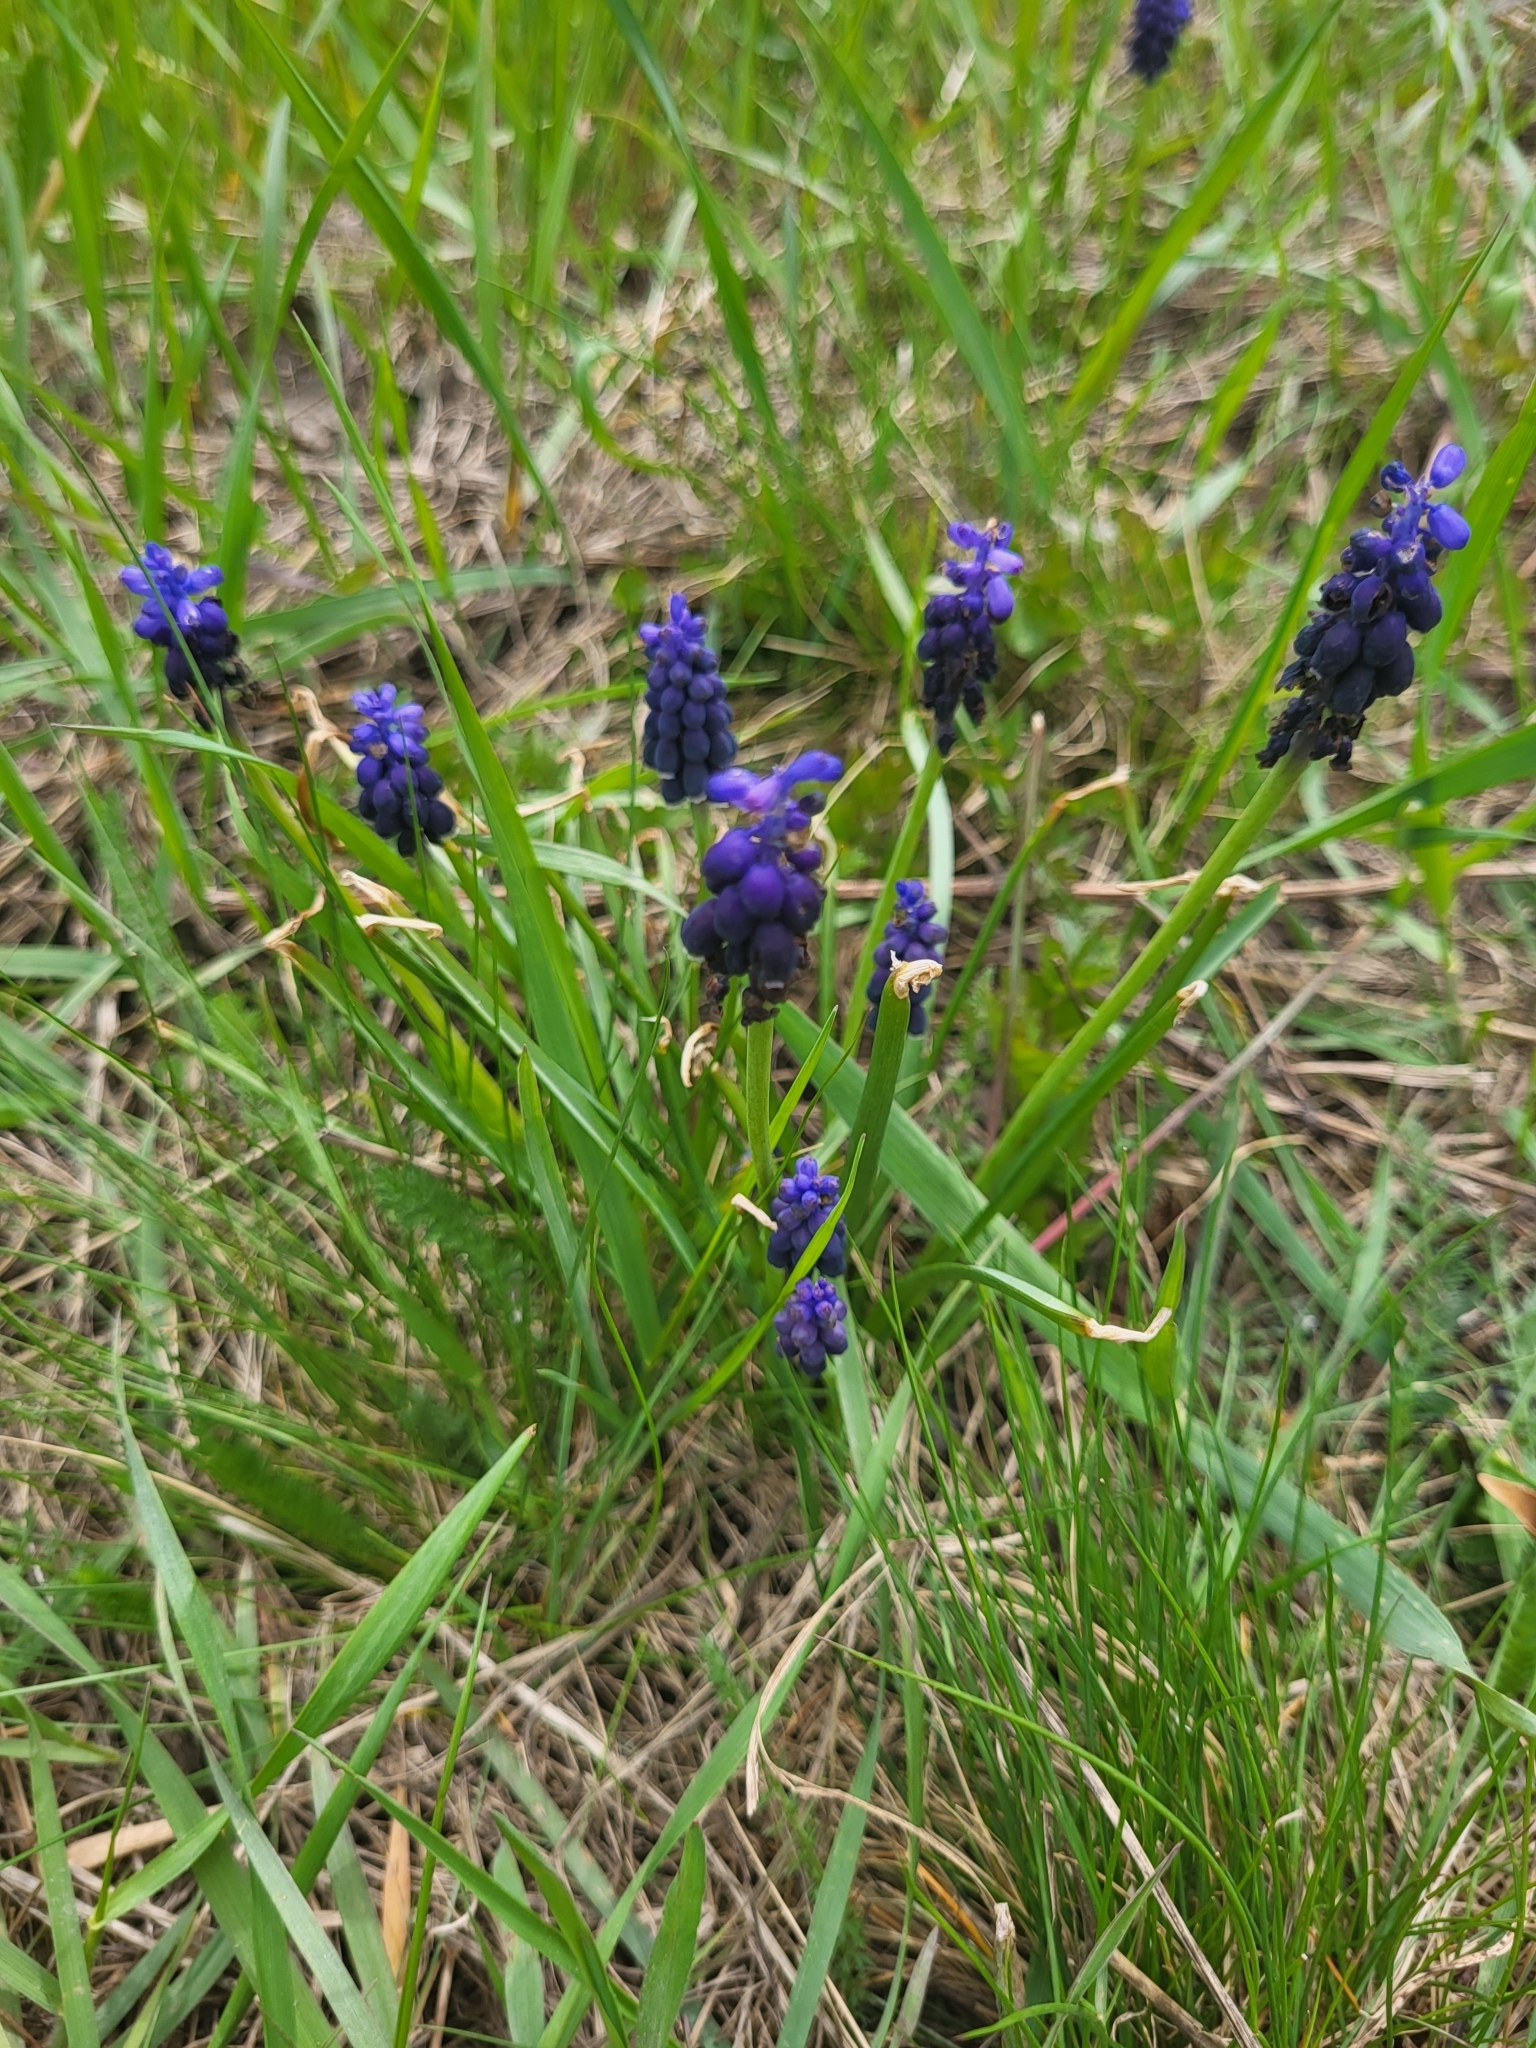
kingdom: Plantae
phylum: Tracheophyta
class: Liliopsida
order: Asparagales
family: Asparagaceae
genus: Muscari
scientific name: Muscari neglectum
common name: Grape-hyacinth
